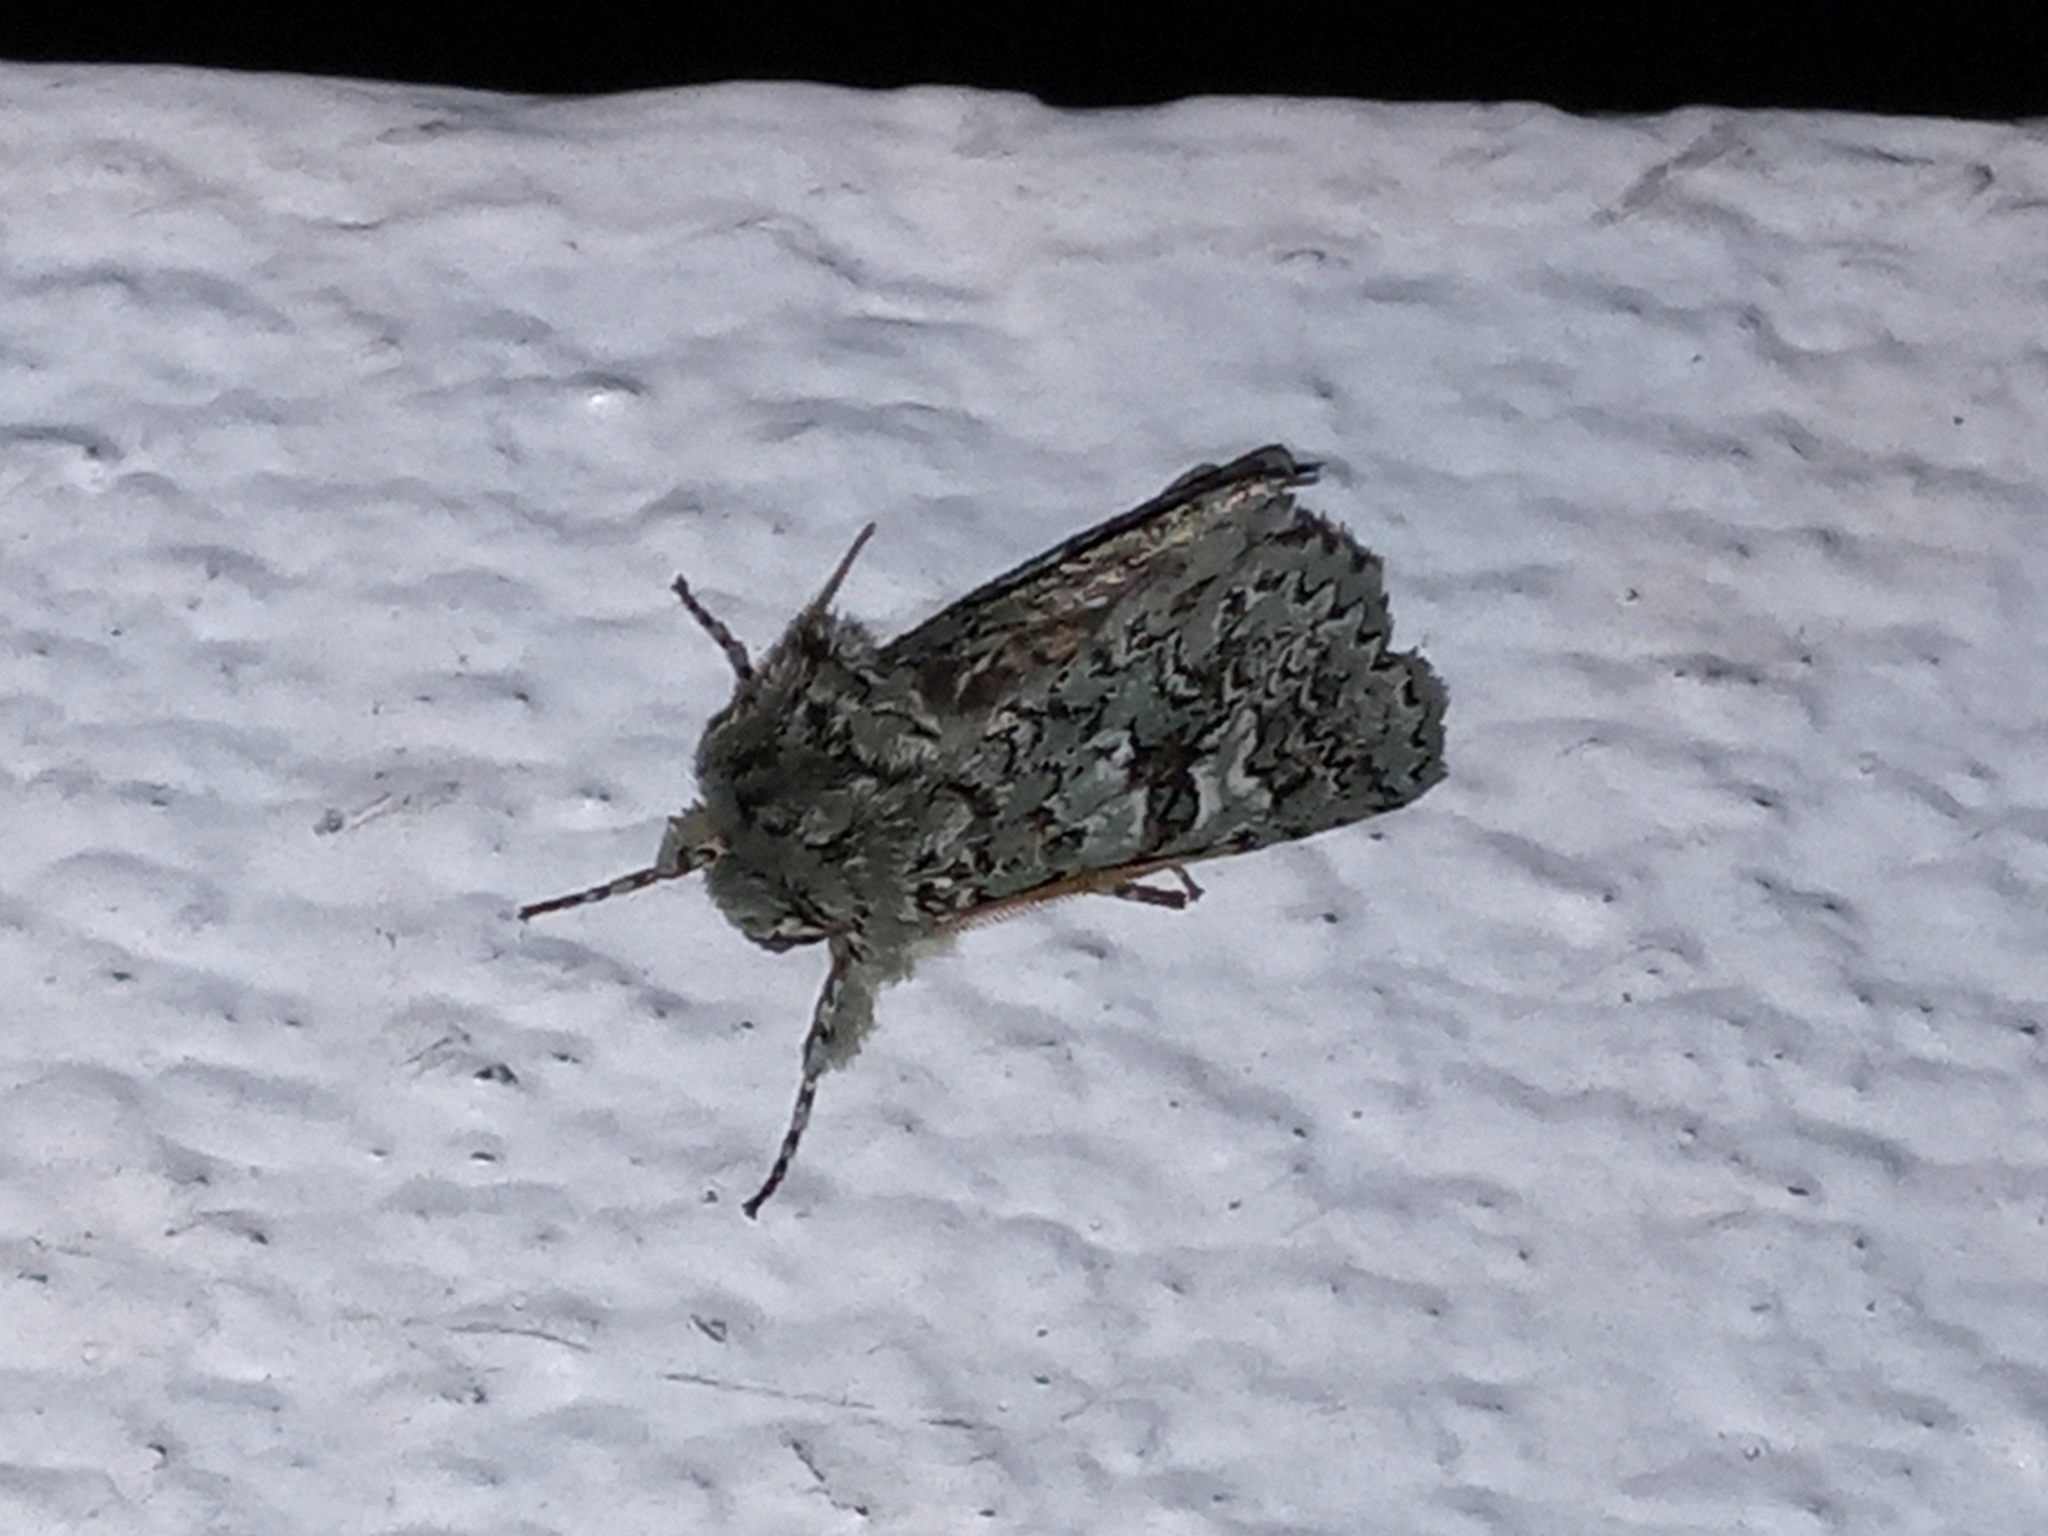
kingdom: Animalia
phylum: Arthropoda
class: Insecta
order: Lepidoptera
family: Noctuidae
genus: Feralia
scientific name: Feralia februalis
